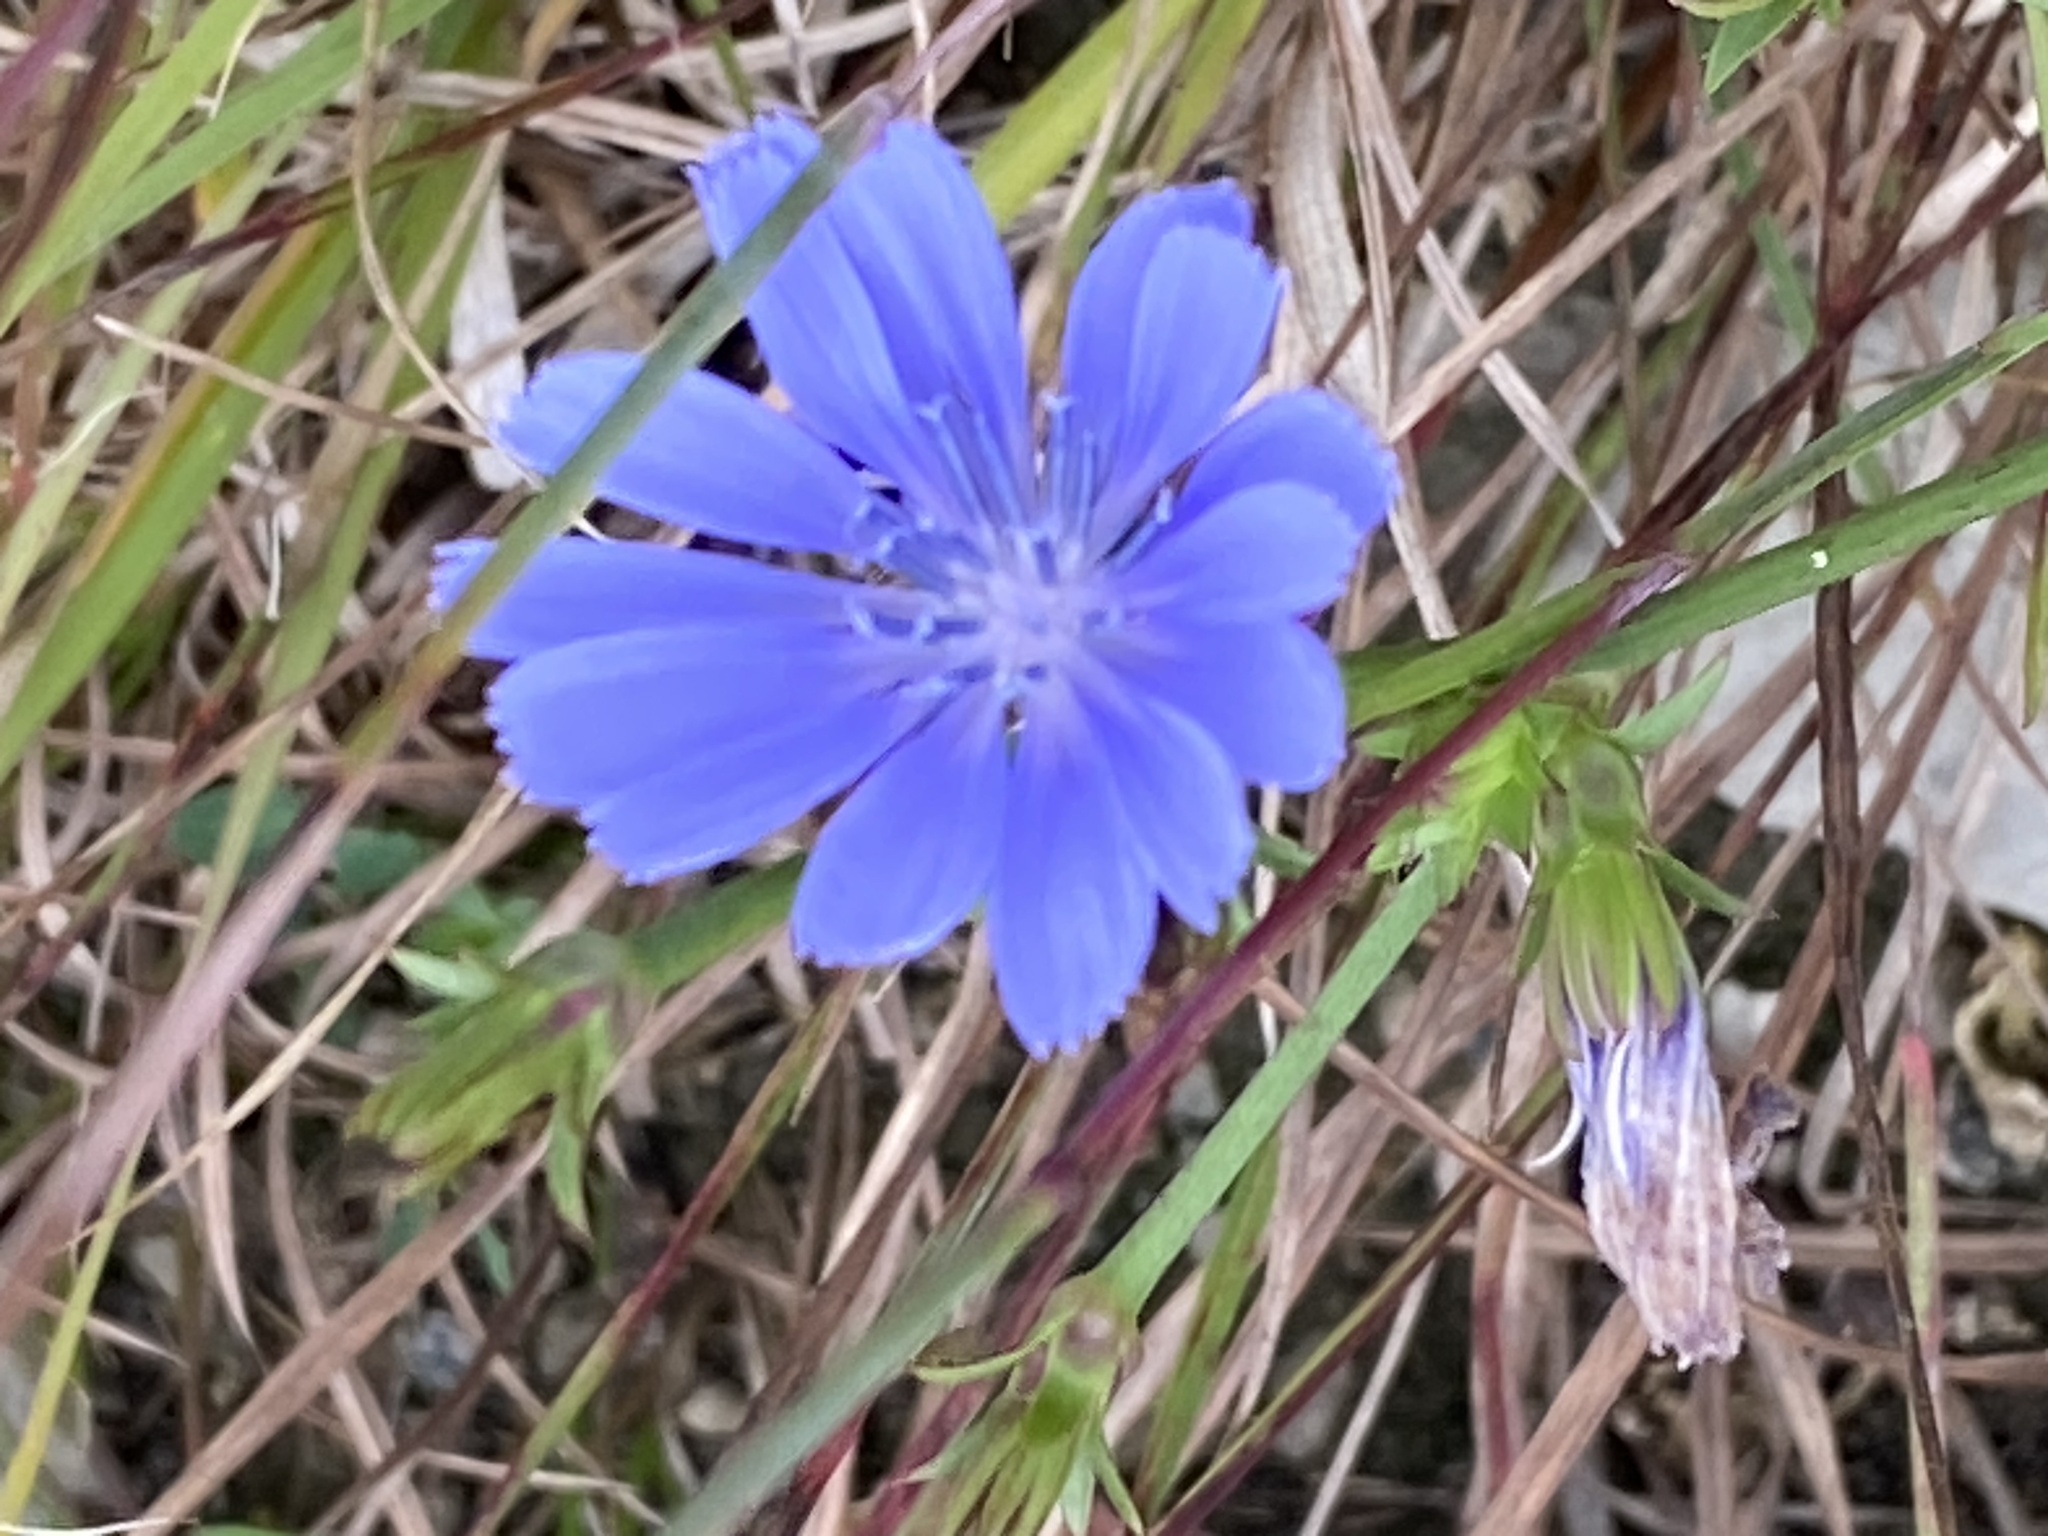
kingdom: Plantae
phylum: Tracheophyta
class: Magnoliopsida
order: Asterales
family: Asteraceae
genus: Cichorium
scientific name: Cichorium intybus
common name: Chicory
